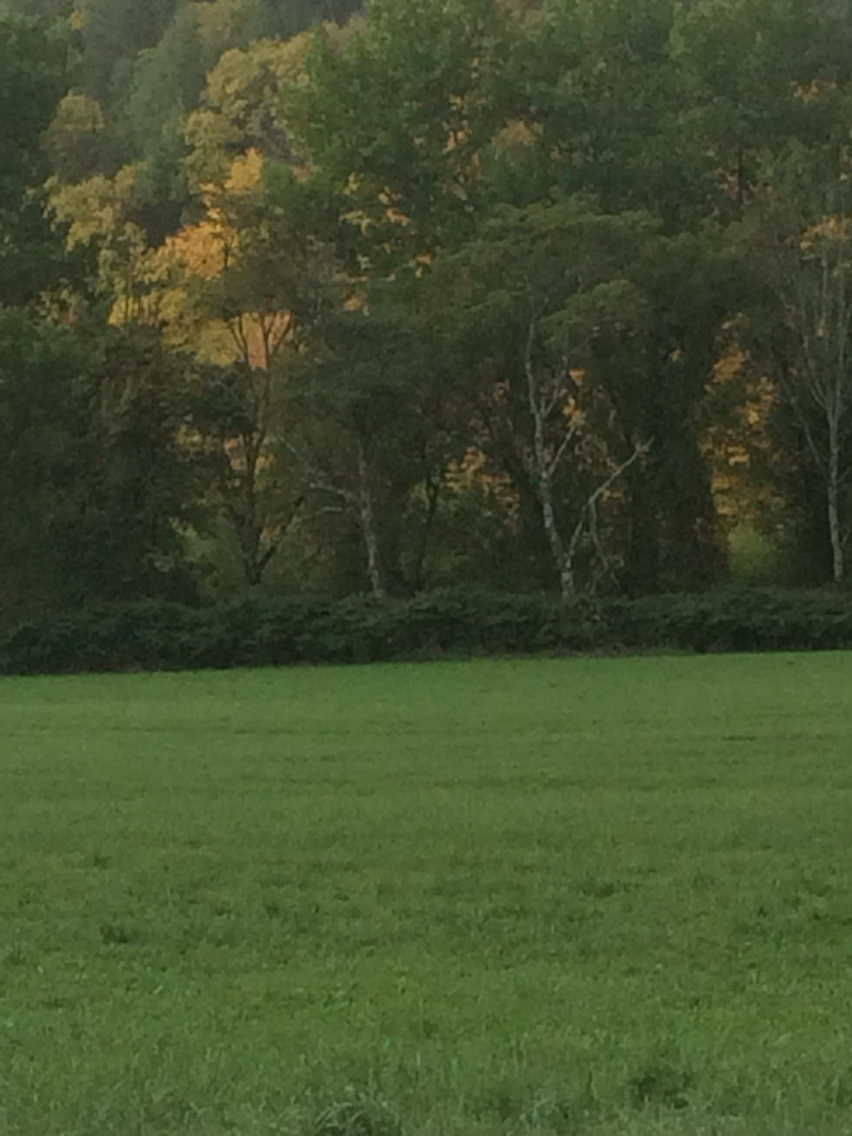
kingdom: Plantae
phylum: Tracheophyta
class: Magnoliopsida
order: Caryophyllales
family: Polygonaceae
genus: Reynoutria
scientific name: Reynoutria japonica
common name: Japanese knotweed
